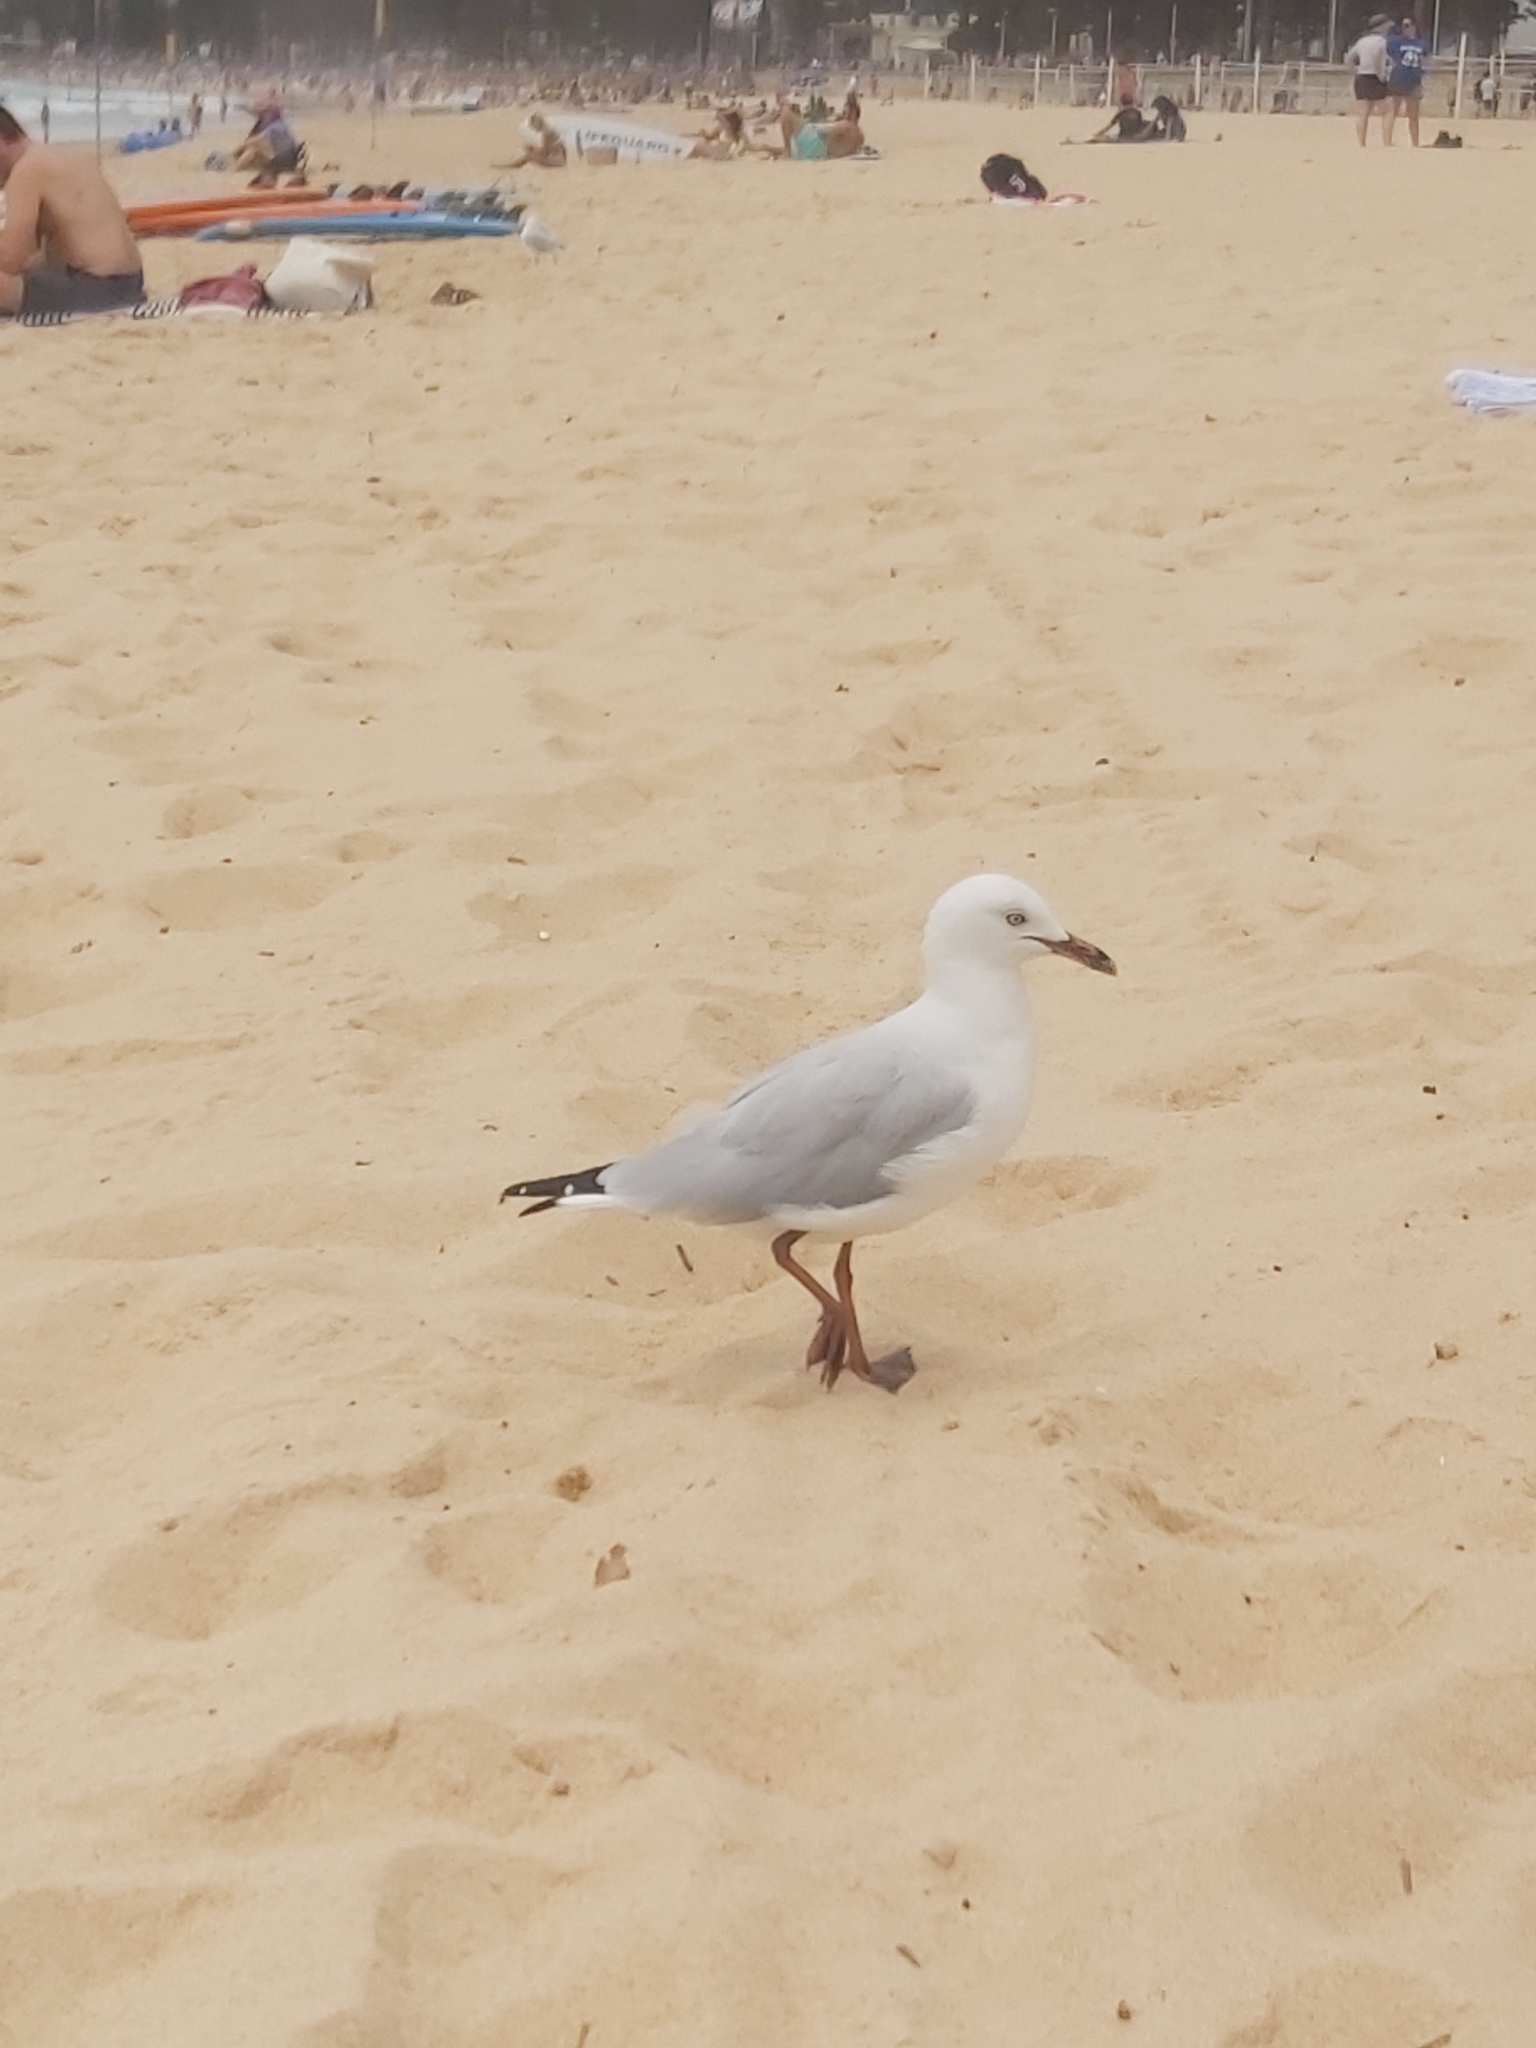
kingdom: Animalia
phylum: Chordata
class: Aves
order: Charadriiformes
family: Laridae
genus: Chroicocephalus
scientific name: Chroicocephalus novaehollandiae
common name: Silver gull
